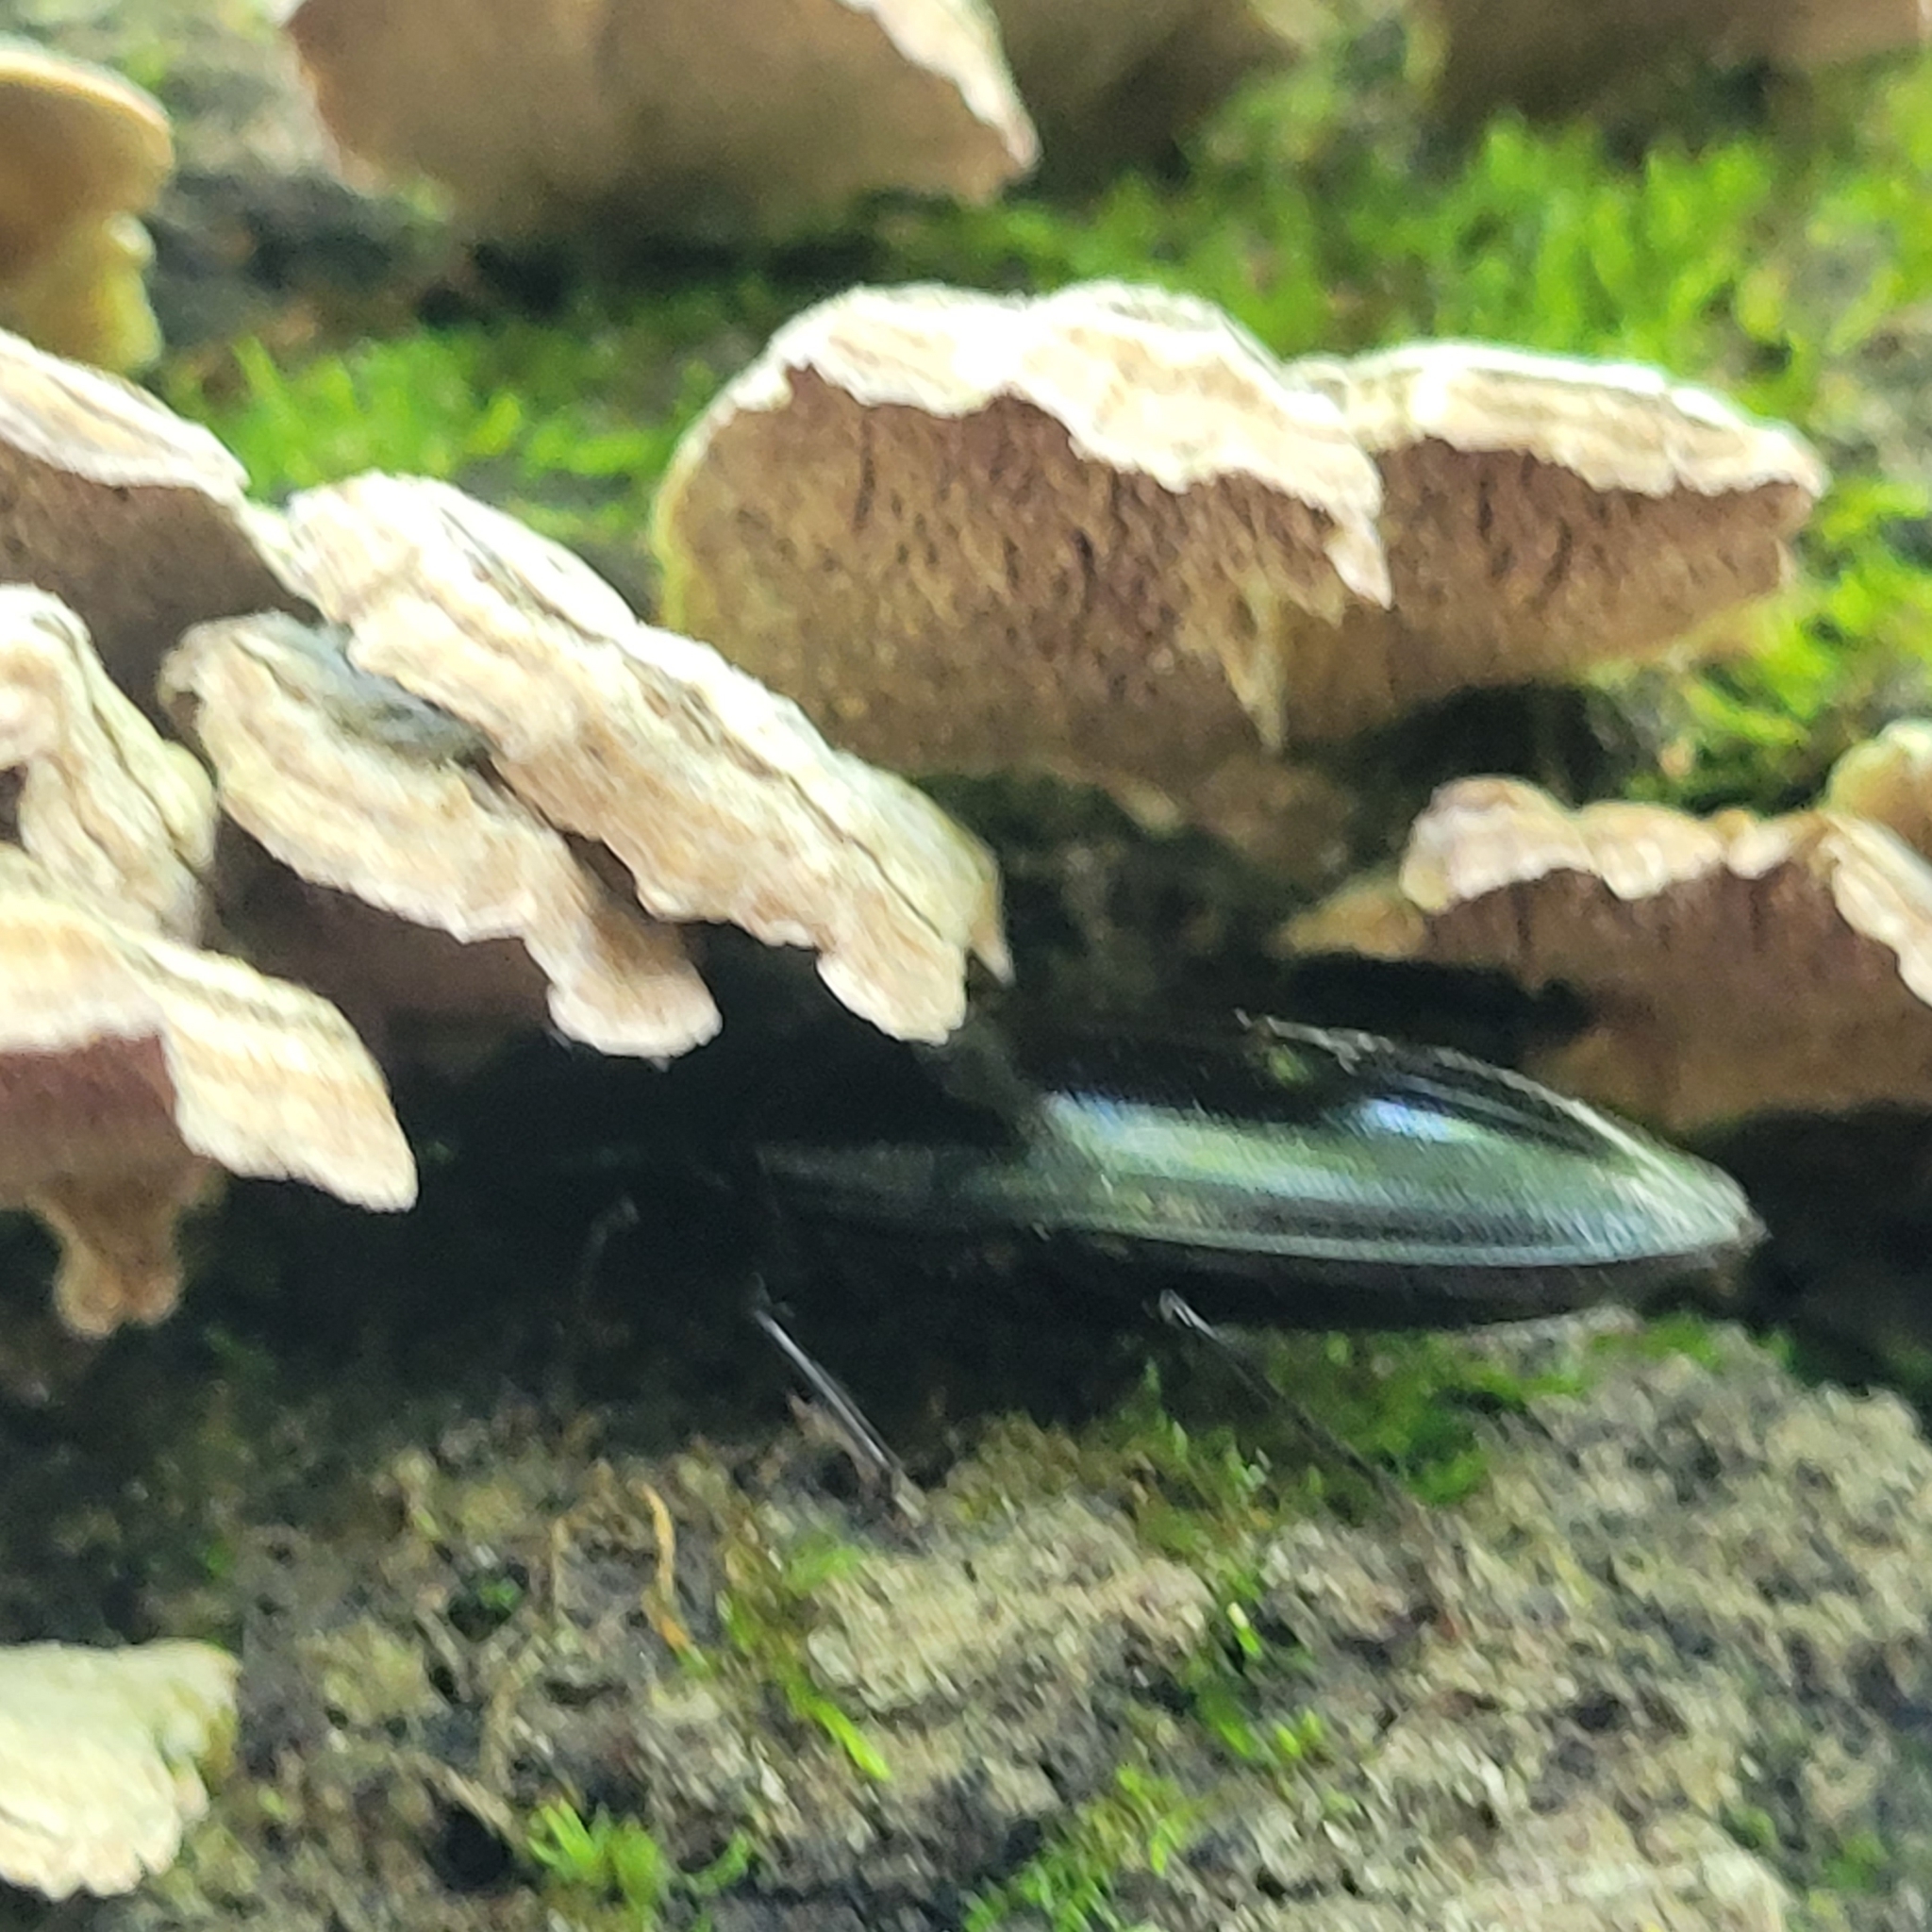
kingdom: Animalia
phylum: Arthropoda
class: Insecta
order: Coleoptera
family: Elateridae
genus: Melanactes
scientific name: Melanactes piceus
